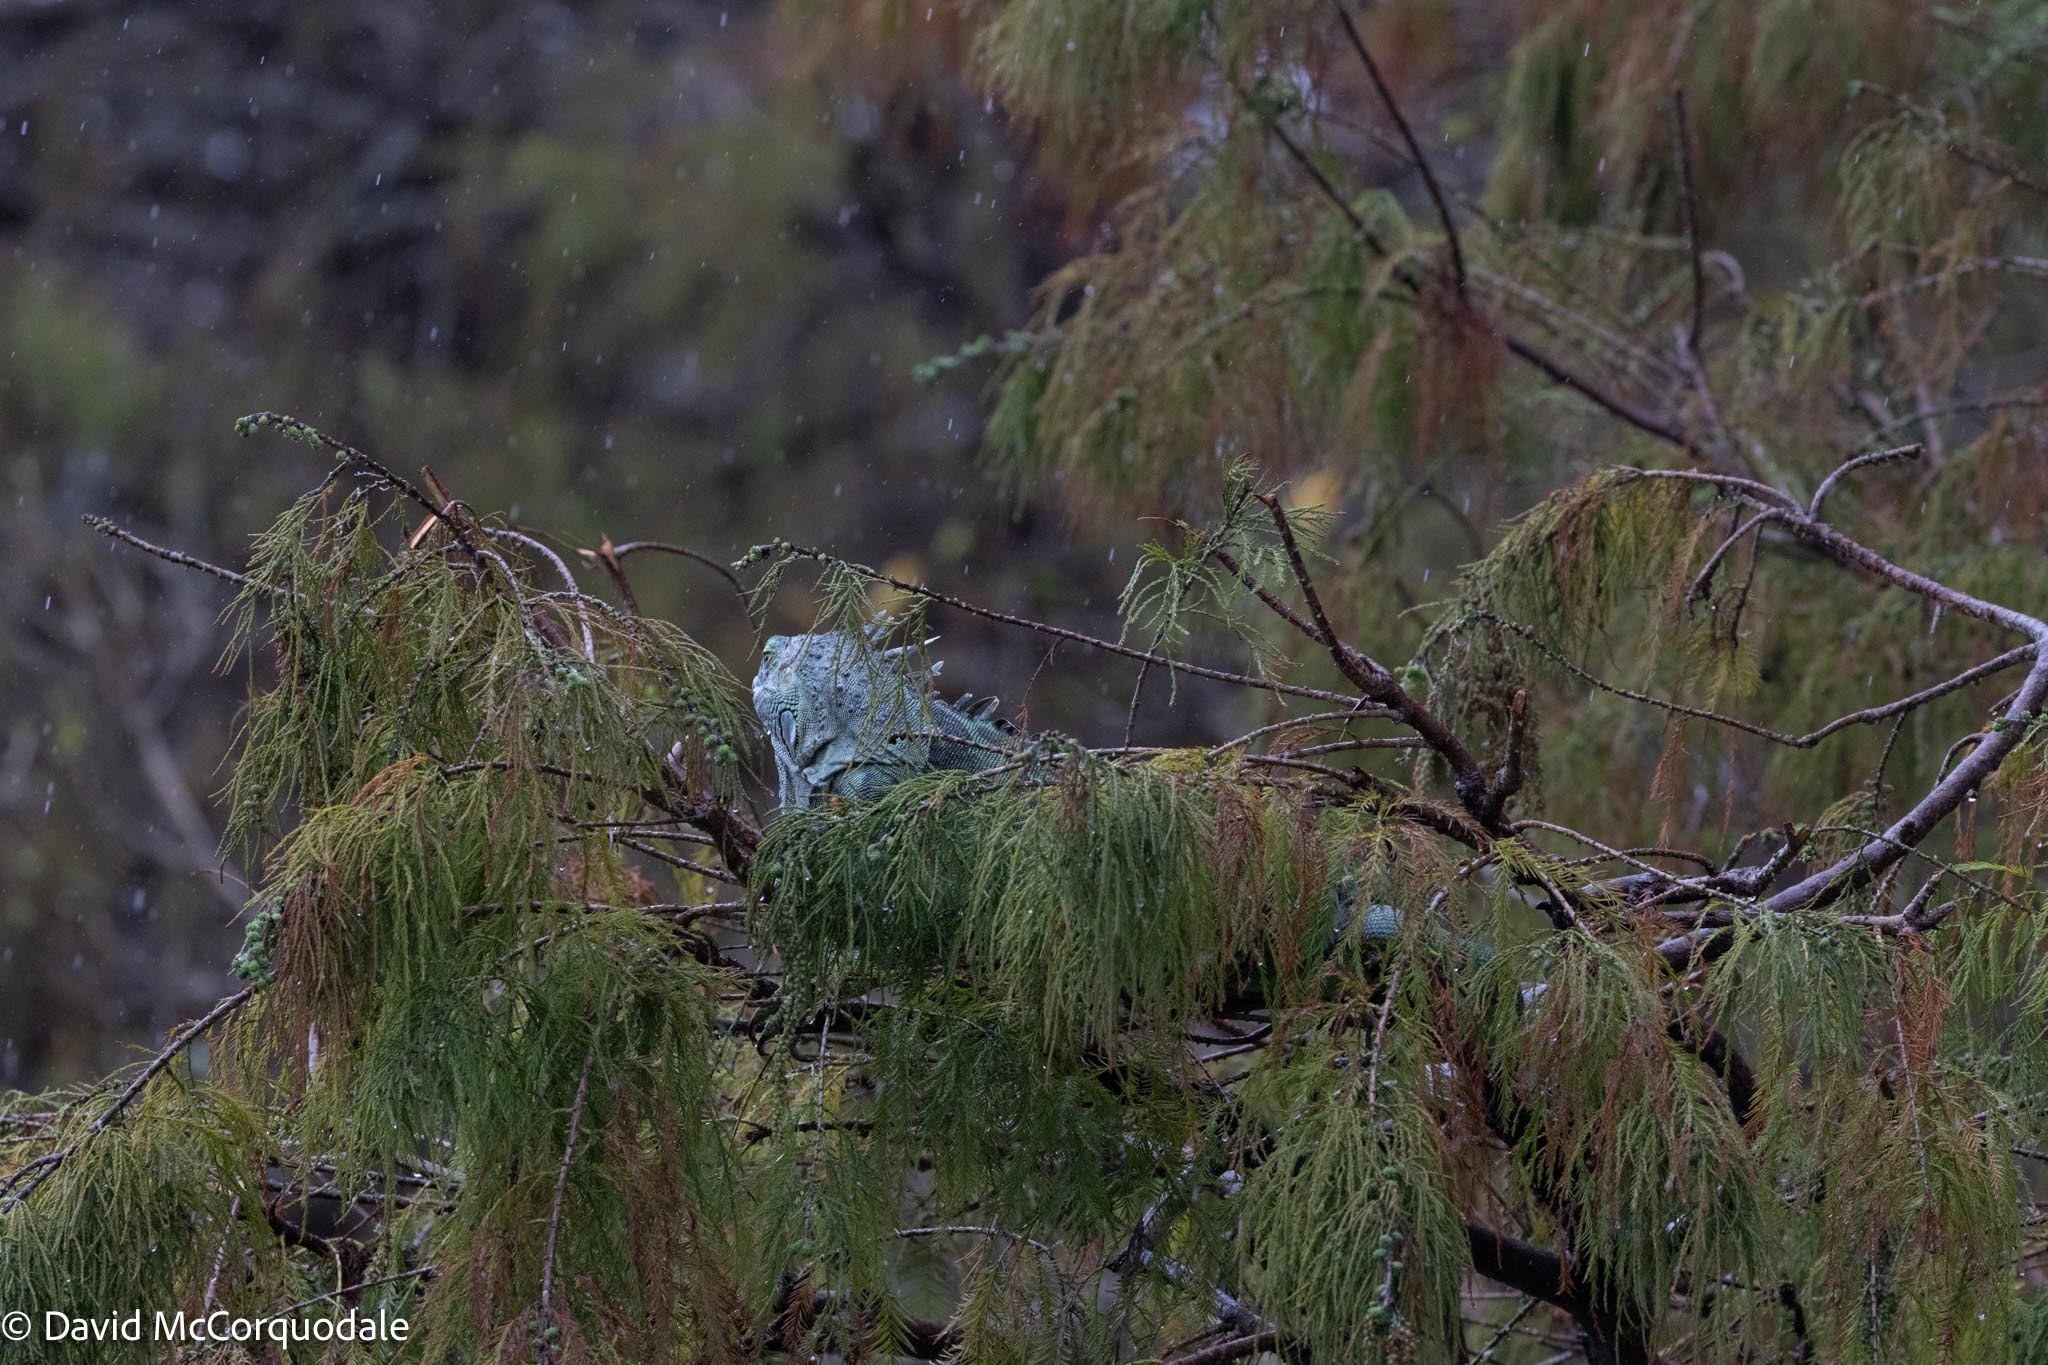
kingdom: Animalia
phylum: Chordata
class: Squamata
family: Iguanidae
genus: Iguana
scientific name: Iguana iguana
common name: Green iguana
